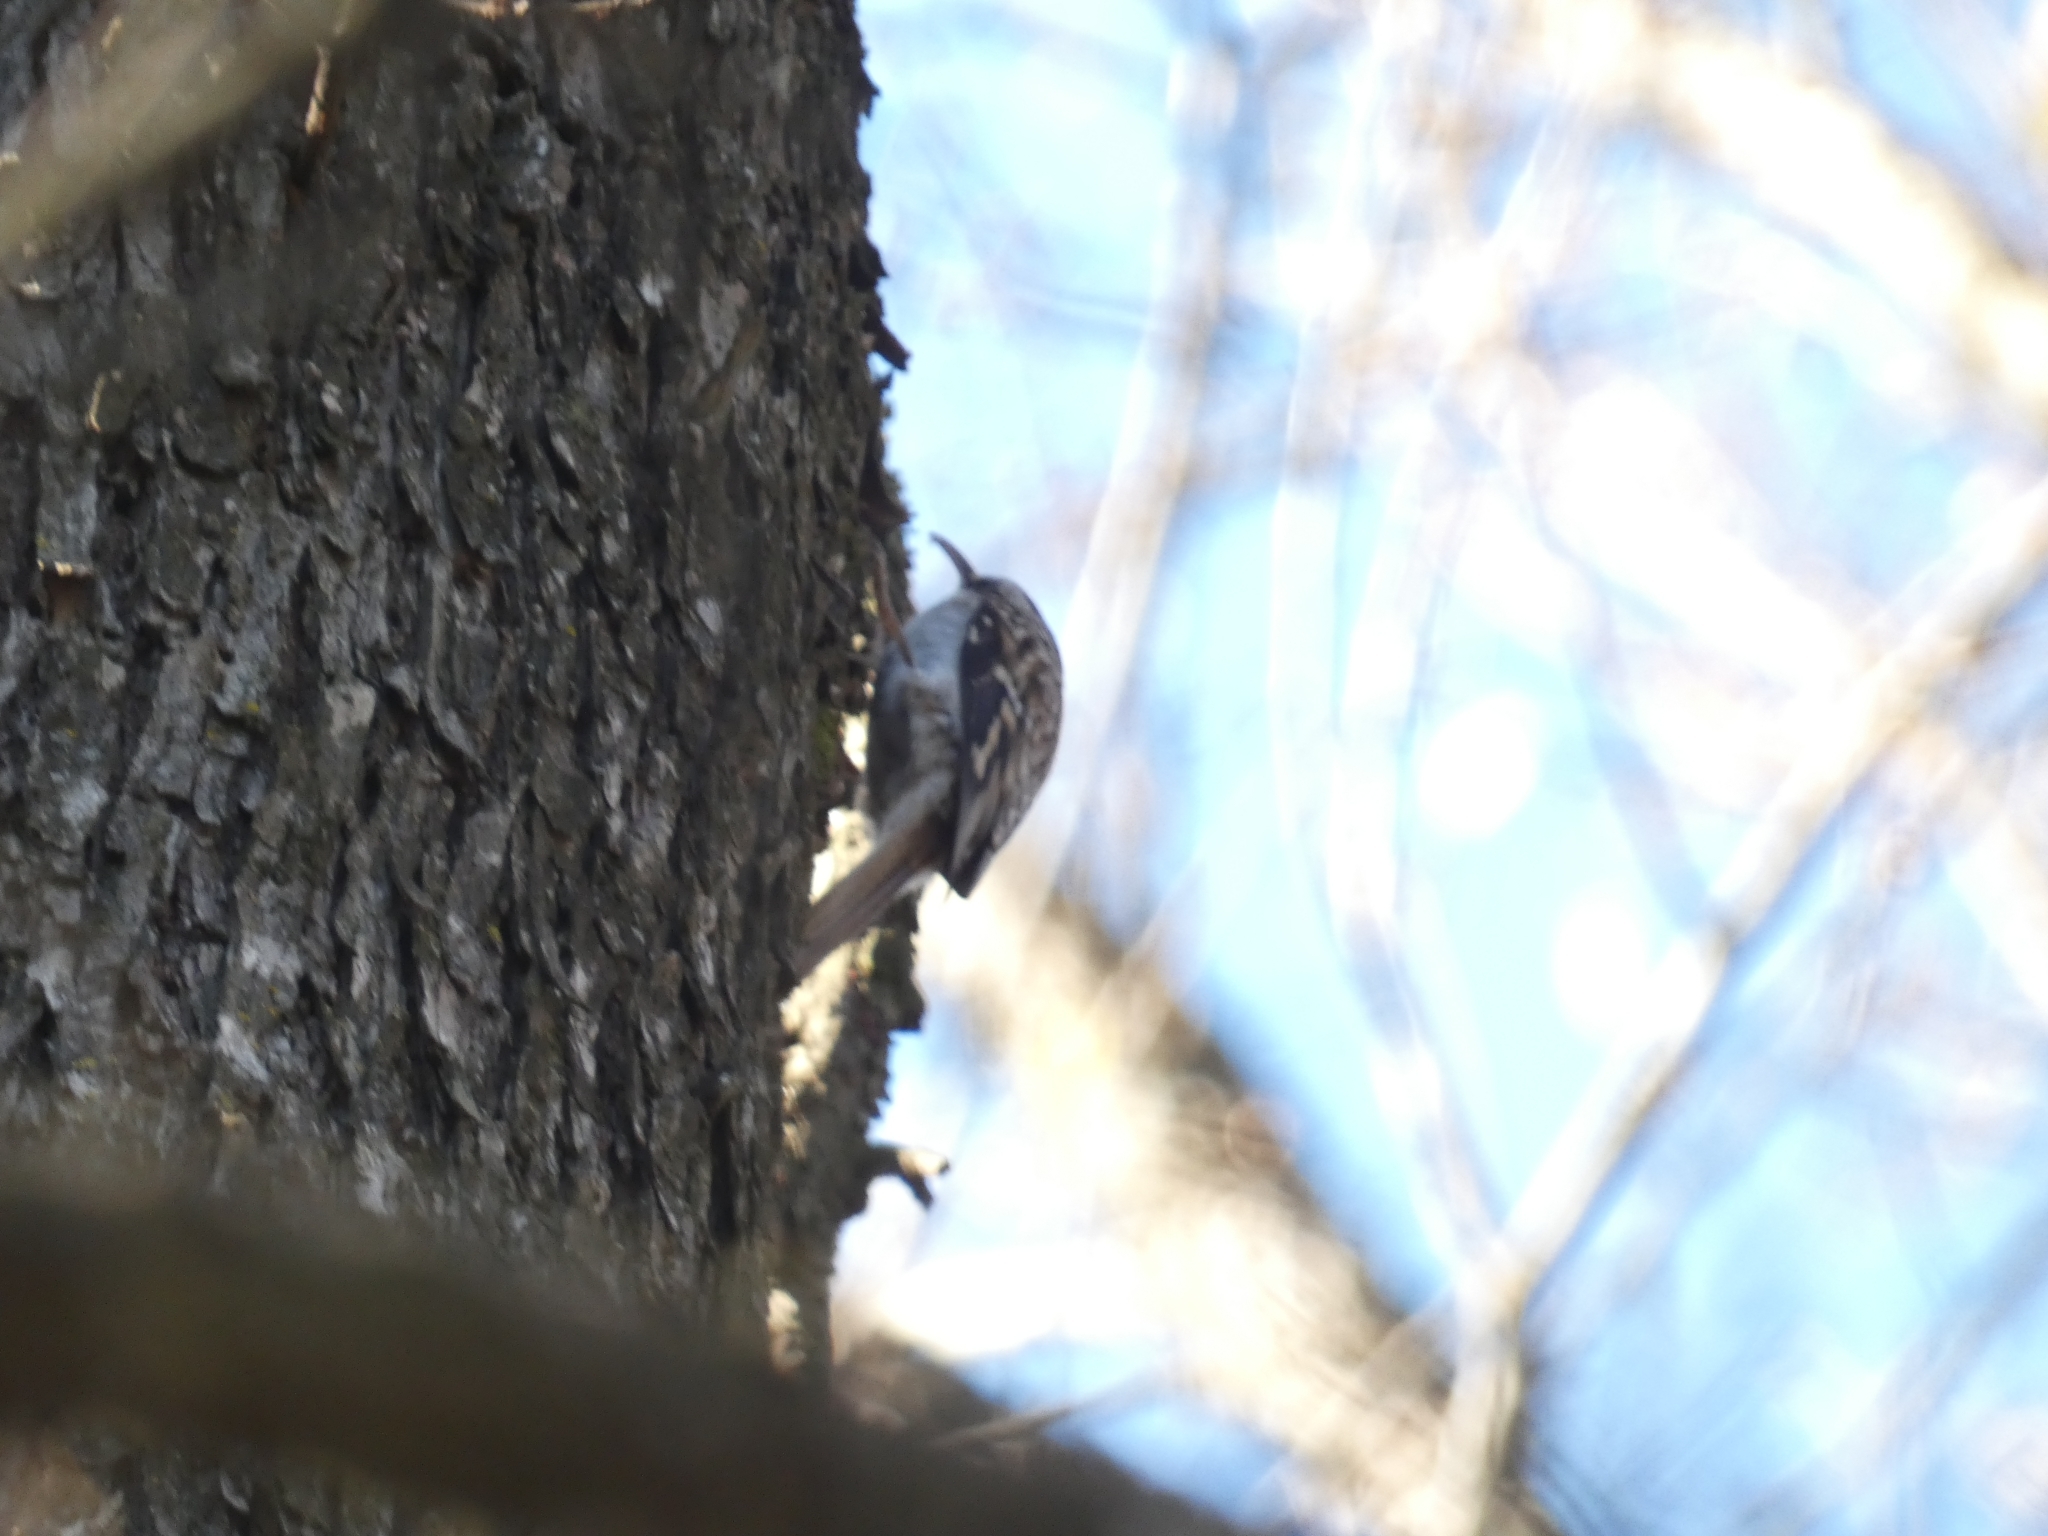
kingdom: Animalia
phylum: Chordata
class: Aves
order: Passeriformes
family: Certhiidae
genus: Certhia
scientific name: Certhia americana
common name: Brown creeper
